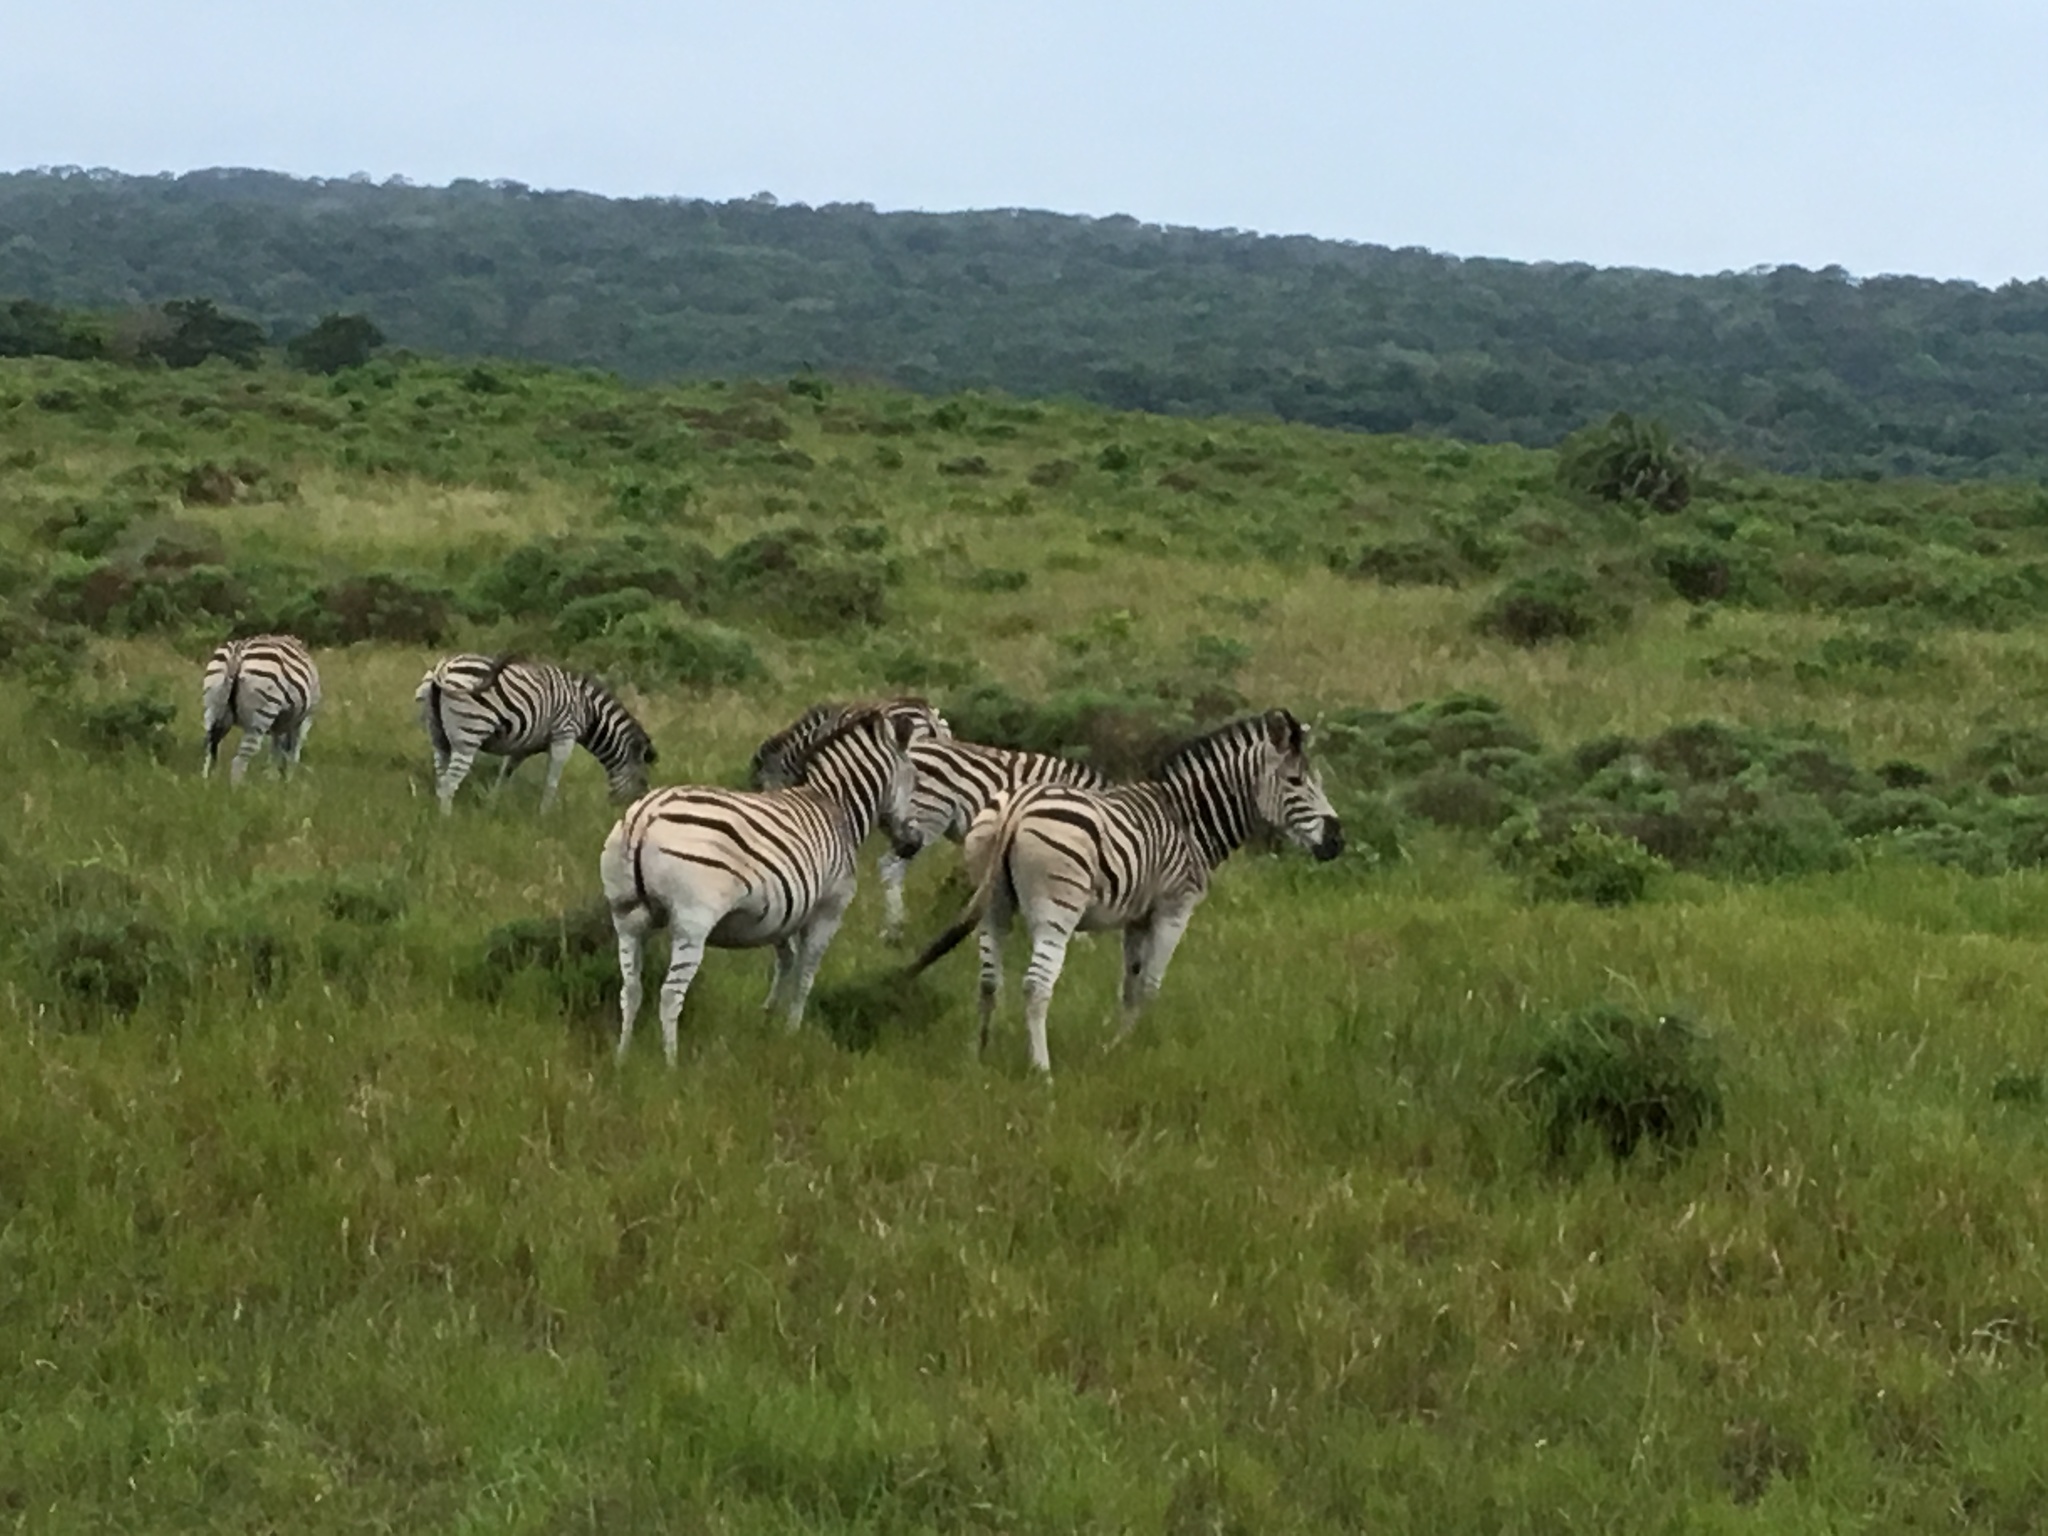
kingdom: Animalia
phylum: Chordata
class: Mammalia
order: Perissodactyla
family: Equidae
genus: Equus
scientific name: Equus quagga
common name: Plains zebra
